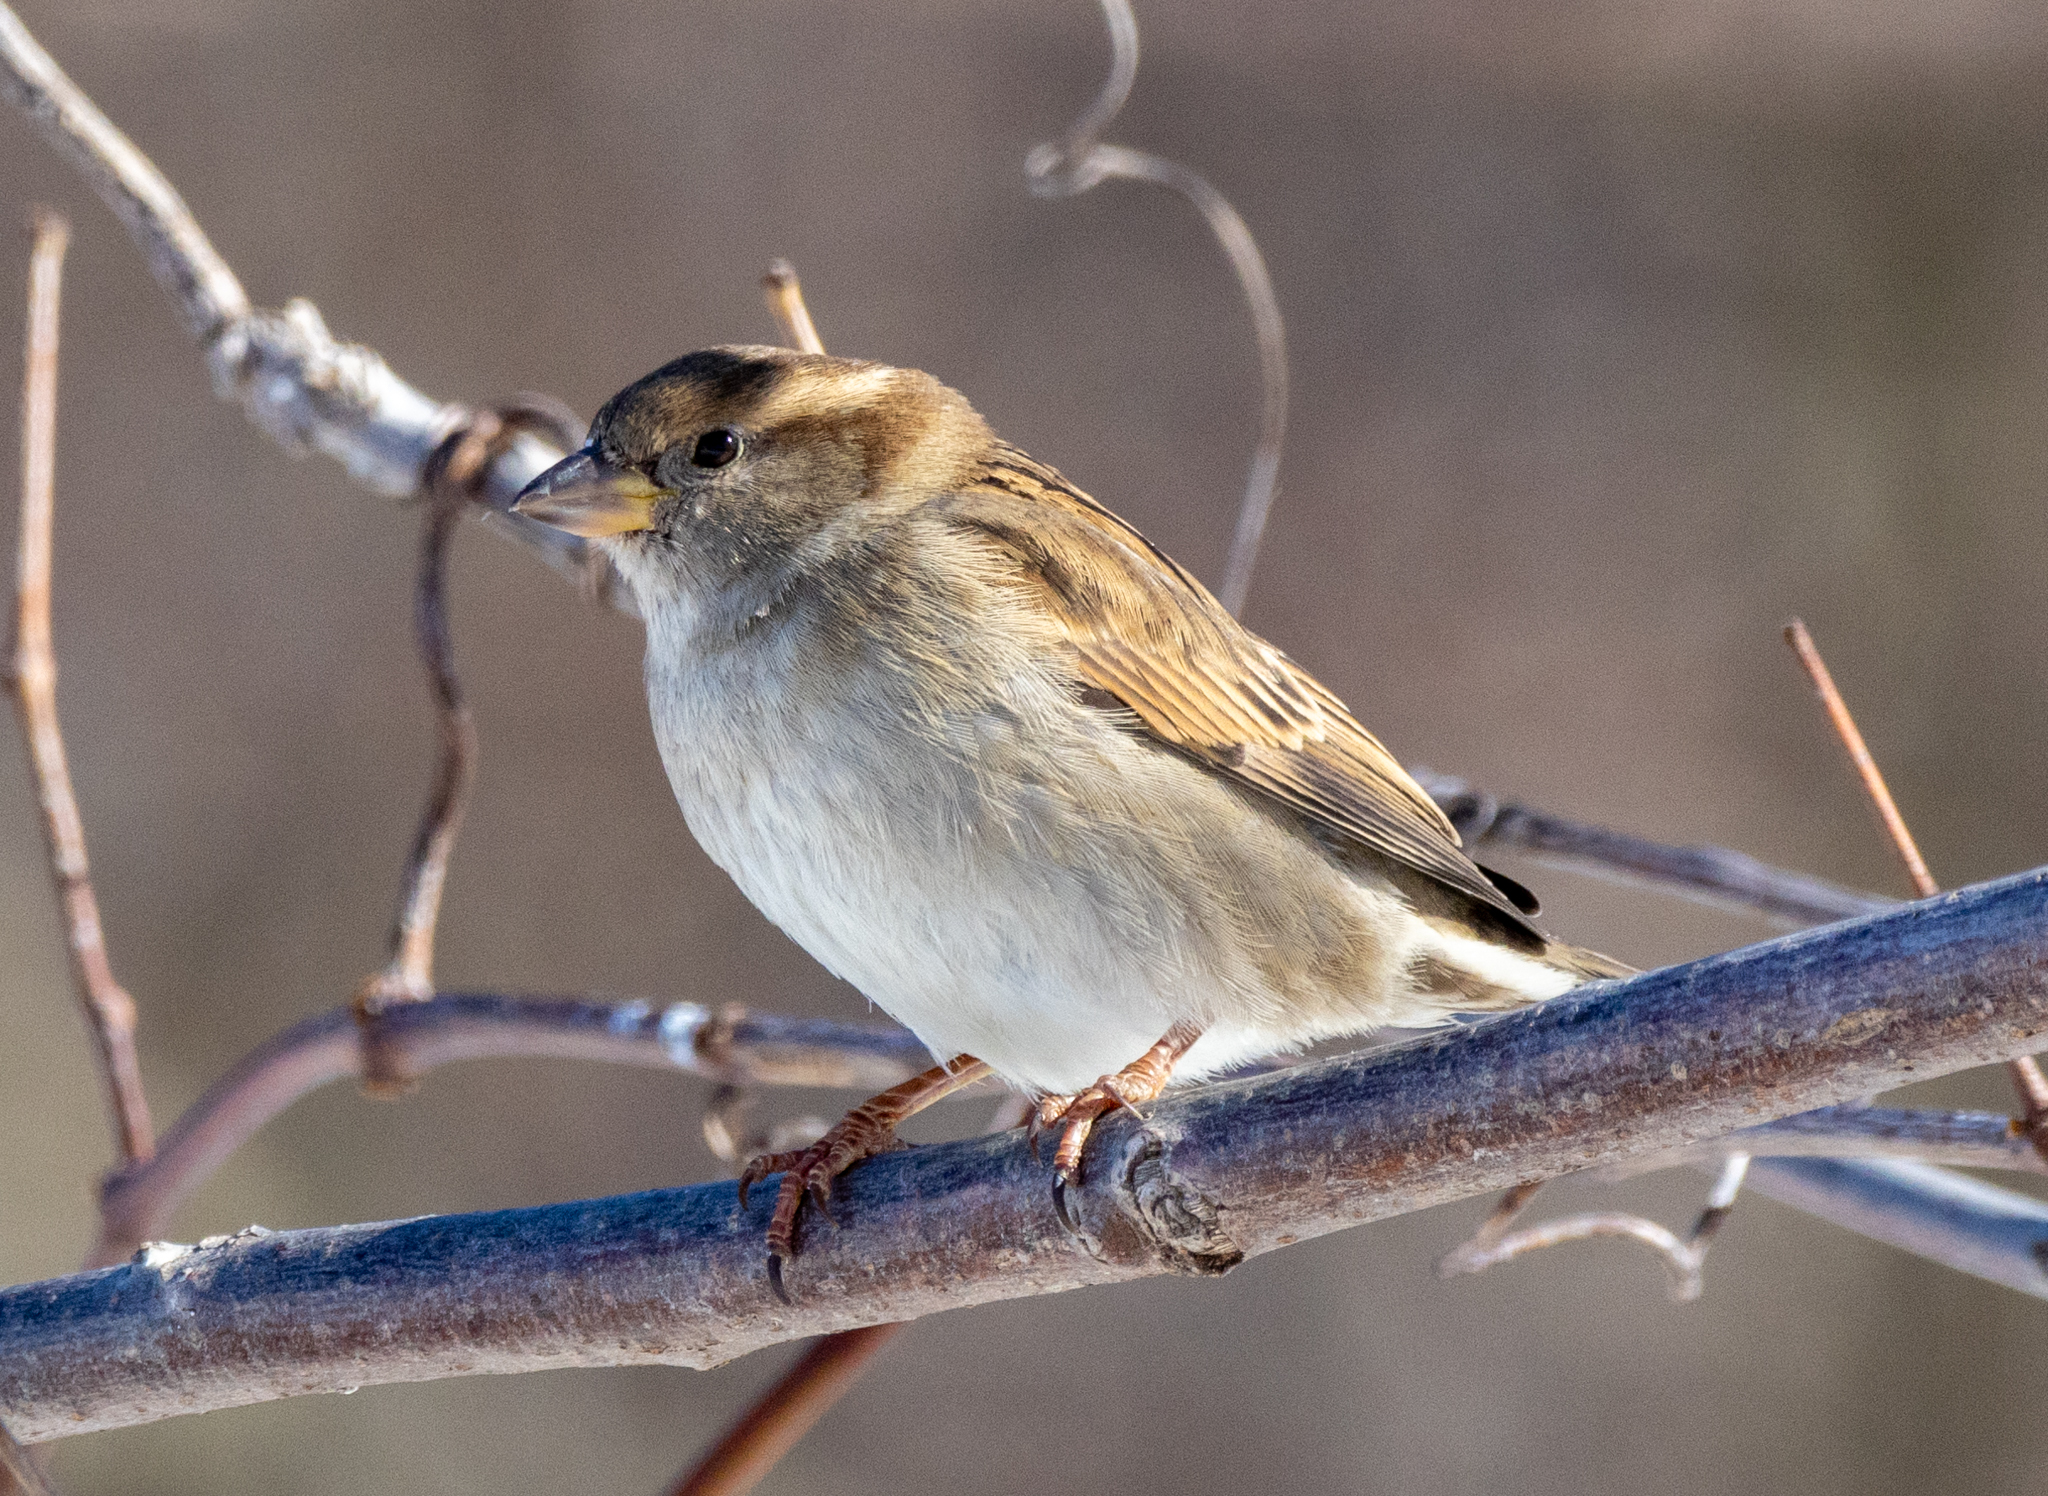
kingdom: Animalia
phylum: Chordata
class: Aves
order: Passeriformes
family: Passeridae
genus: Passer
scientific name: Passer domesticus
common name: House sparrow
